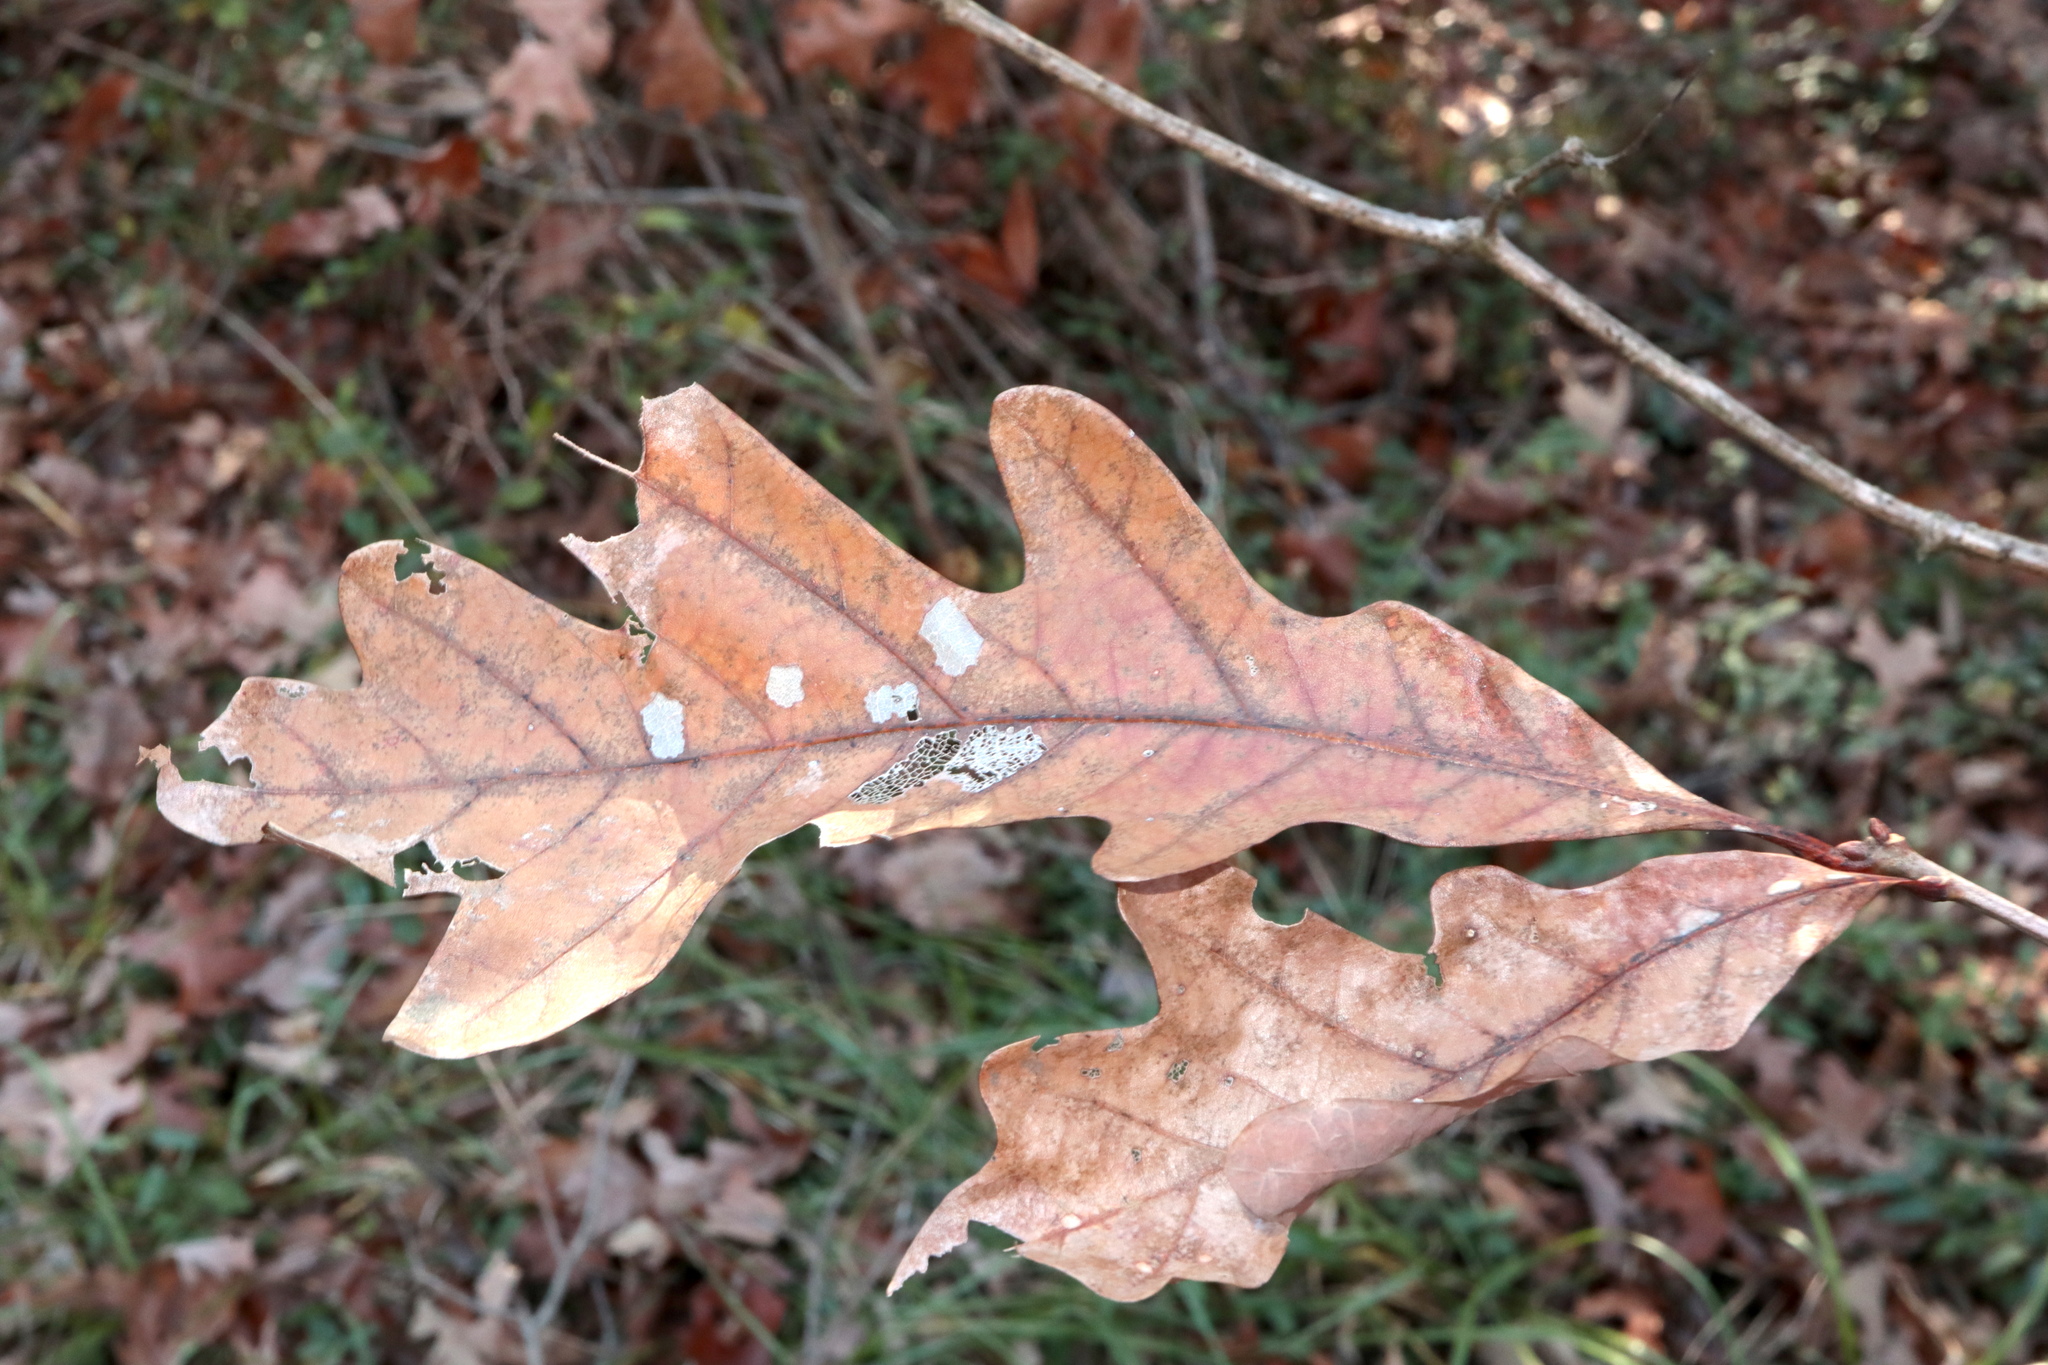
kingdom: Plantae
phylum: Tracheophyta
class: Magnoliopsida
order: Fagales
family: Fagaceae
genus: Quercus
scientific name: Quercus alba
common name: White oak
